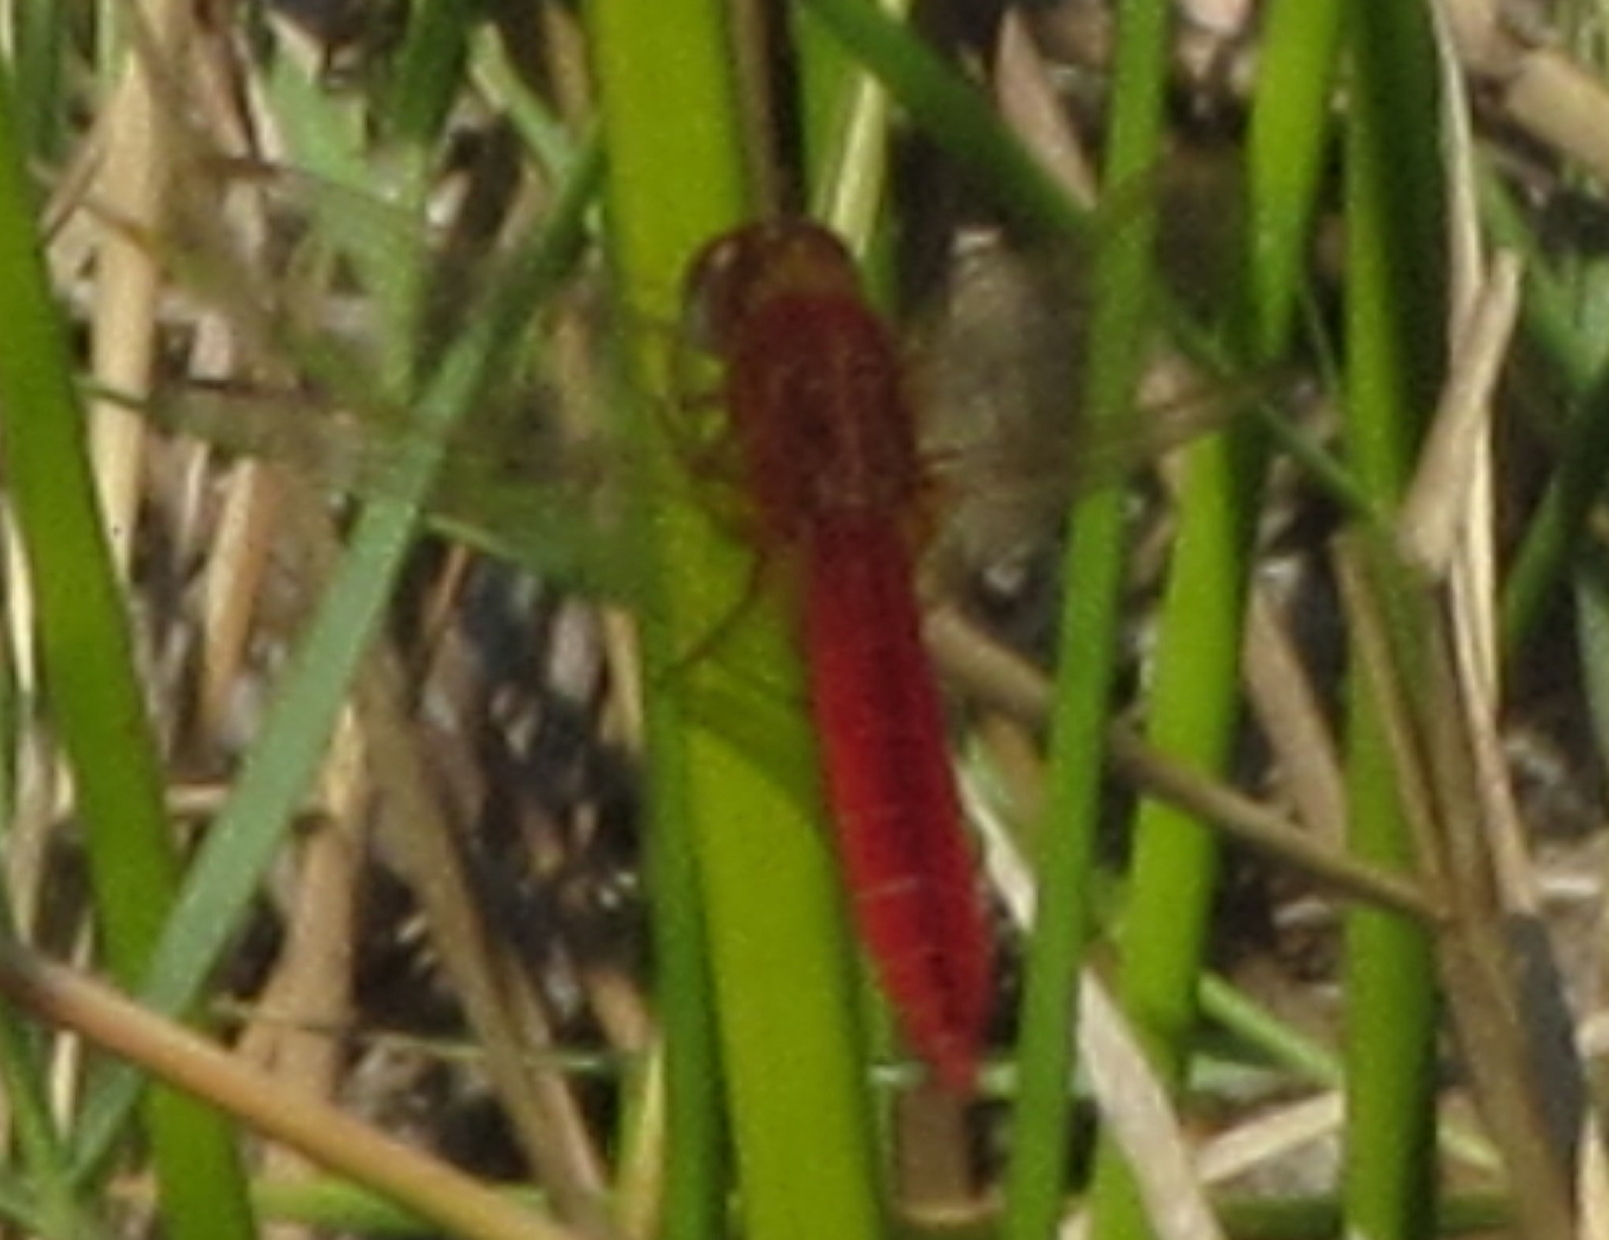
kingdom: Animalia
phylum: Arthropoda
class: Insecta
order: Odonata
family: Libellulidae
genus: Crocothemis
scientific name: Crocothemis erythraea
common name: Scarlet dragonfly
